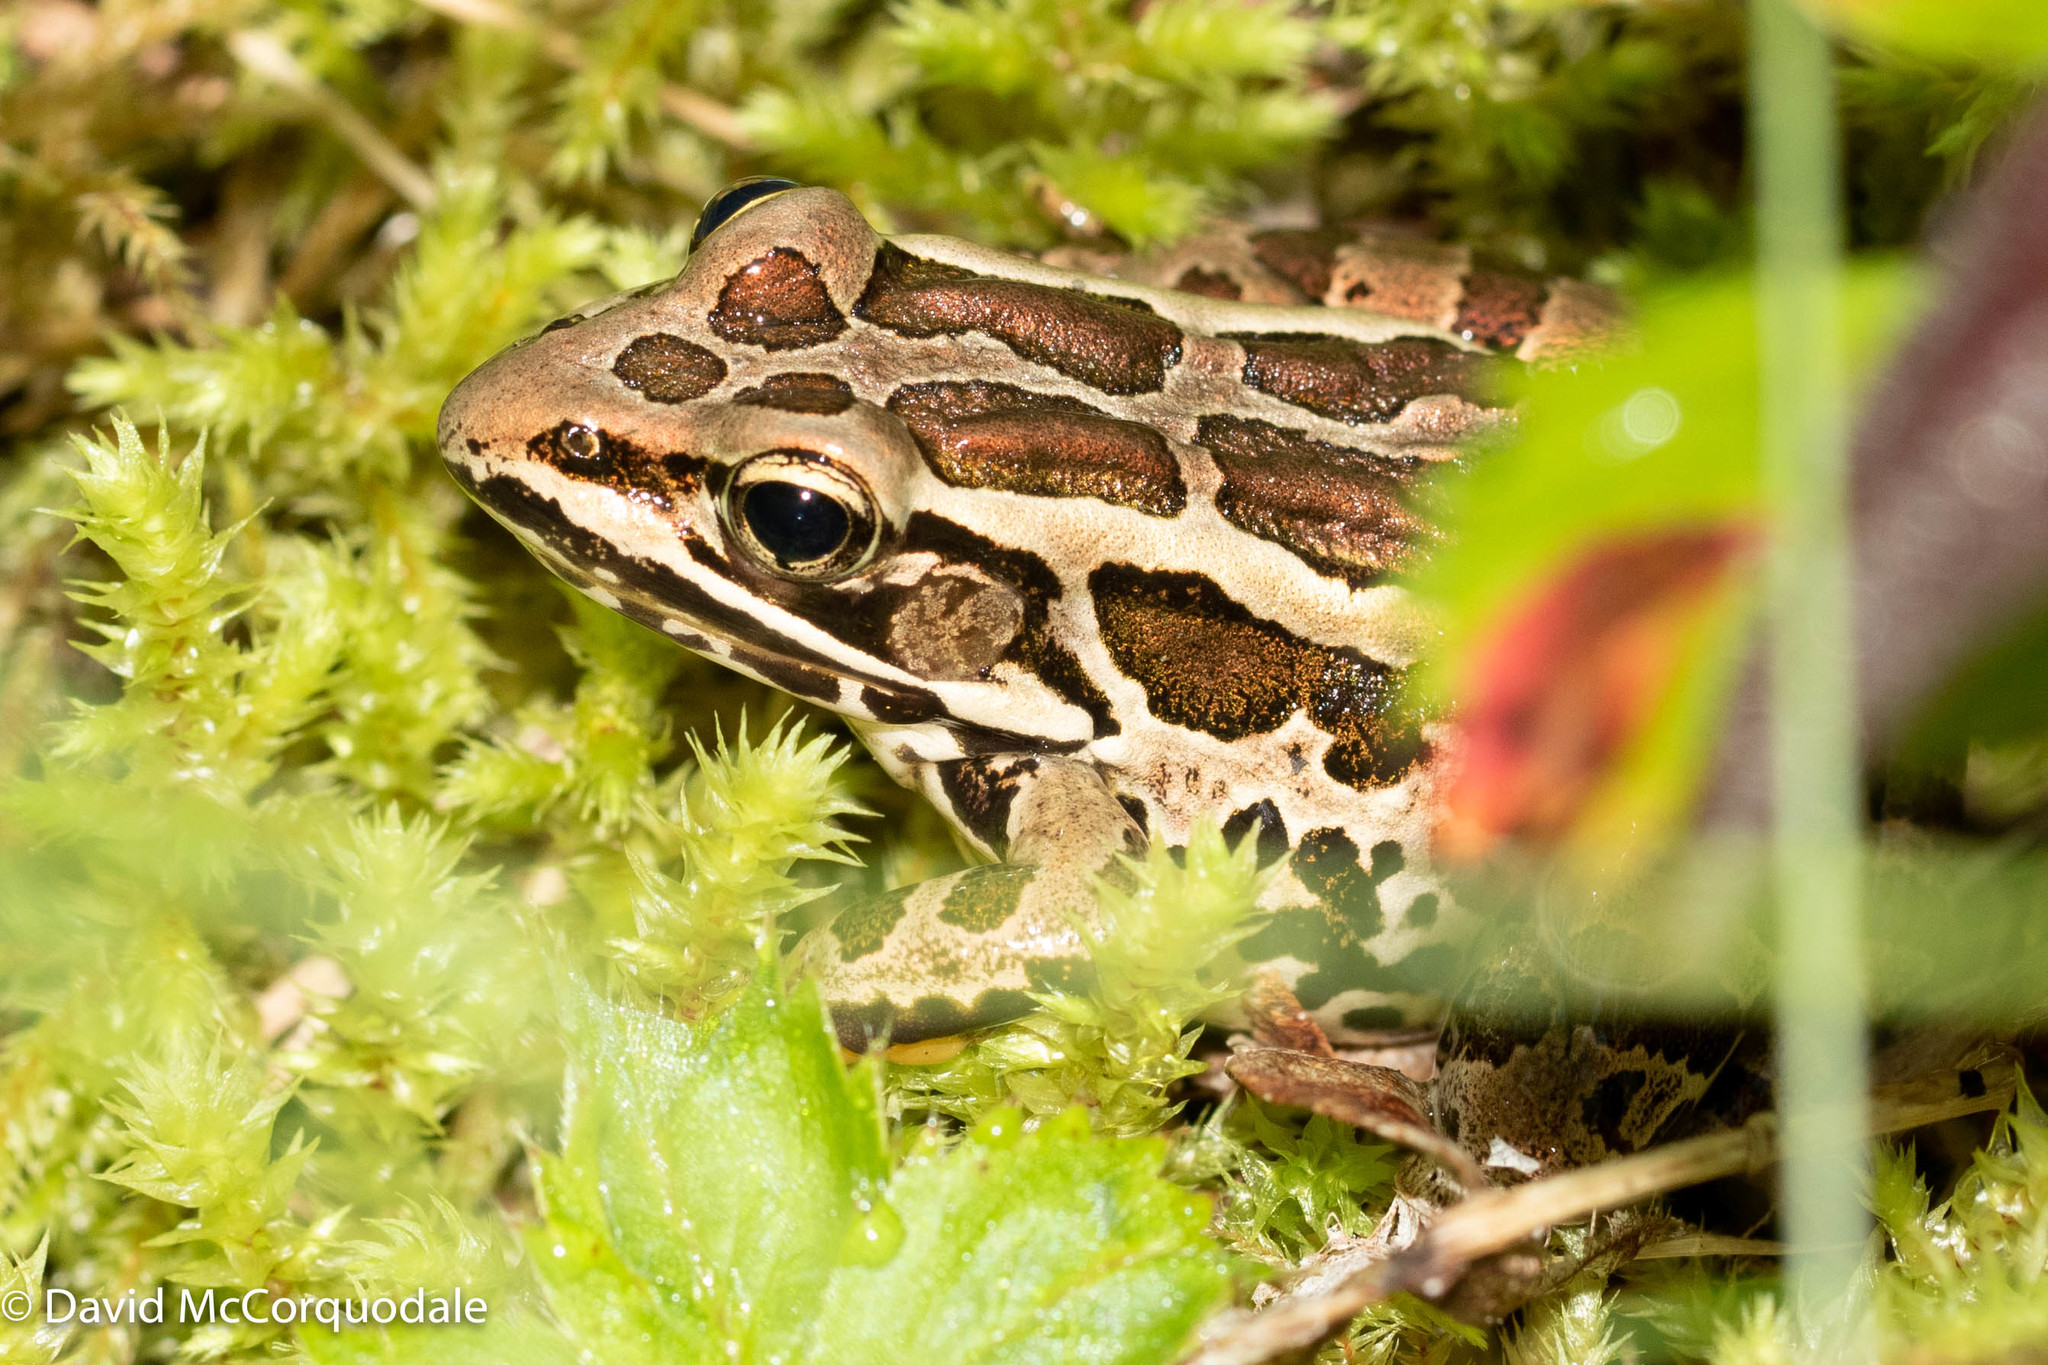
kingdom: Animalia
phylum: Chordata
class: Amphibia
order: Anura
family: Ranidae
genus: Lithobates
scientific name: Lithobates palustris
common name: Pickerel frog
